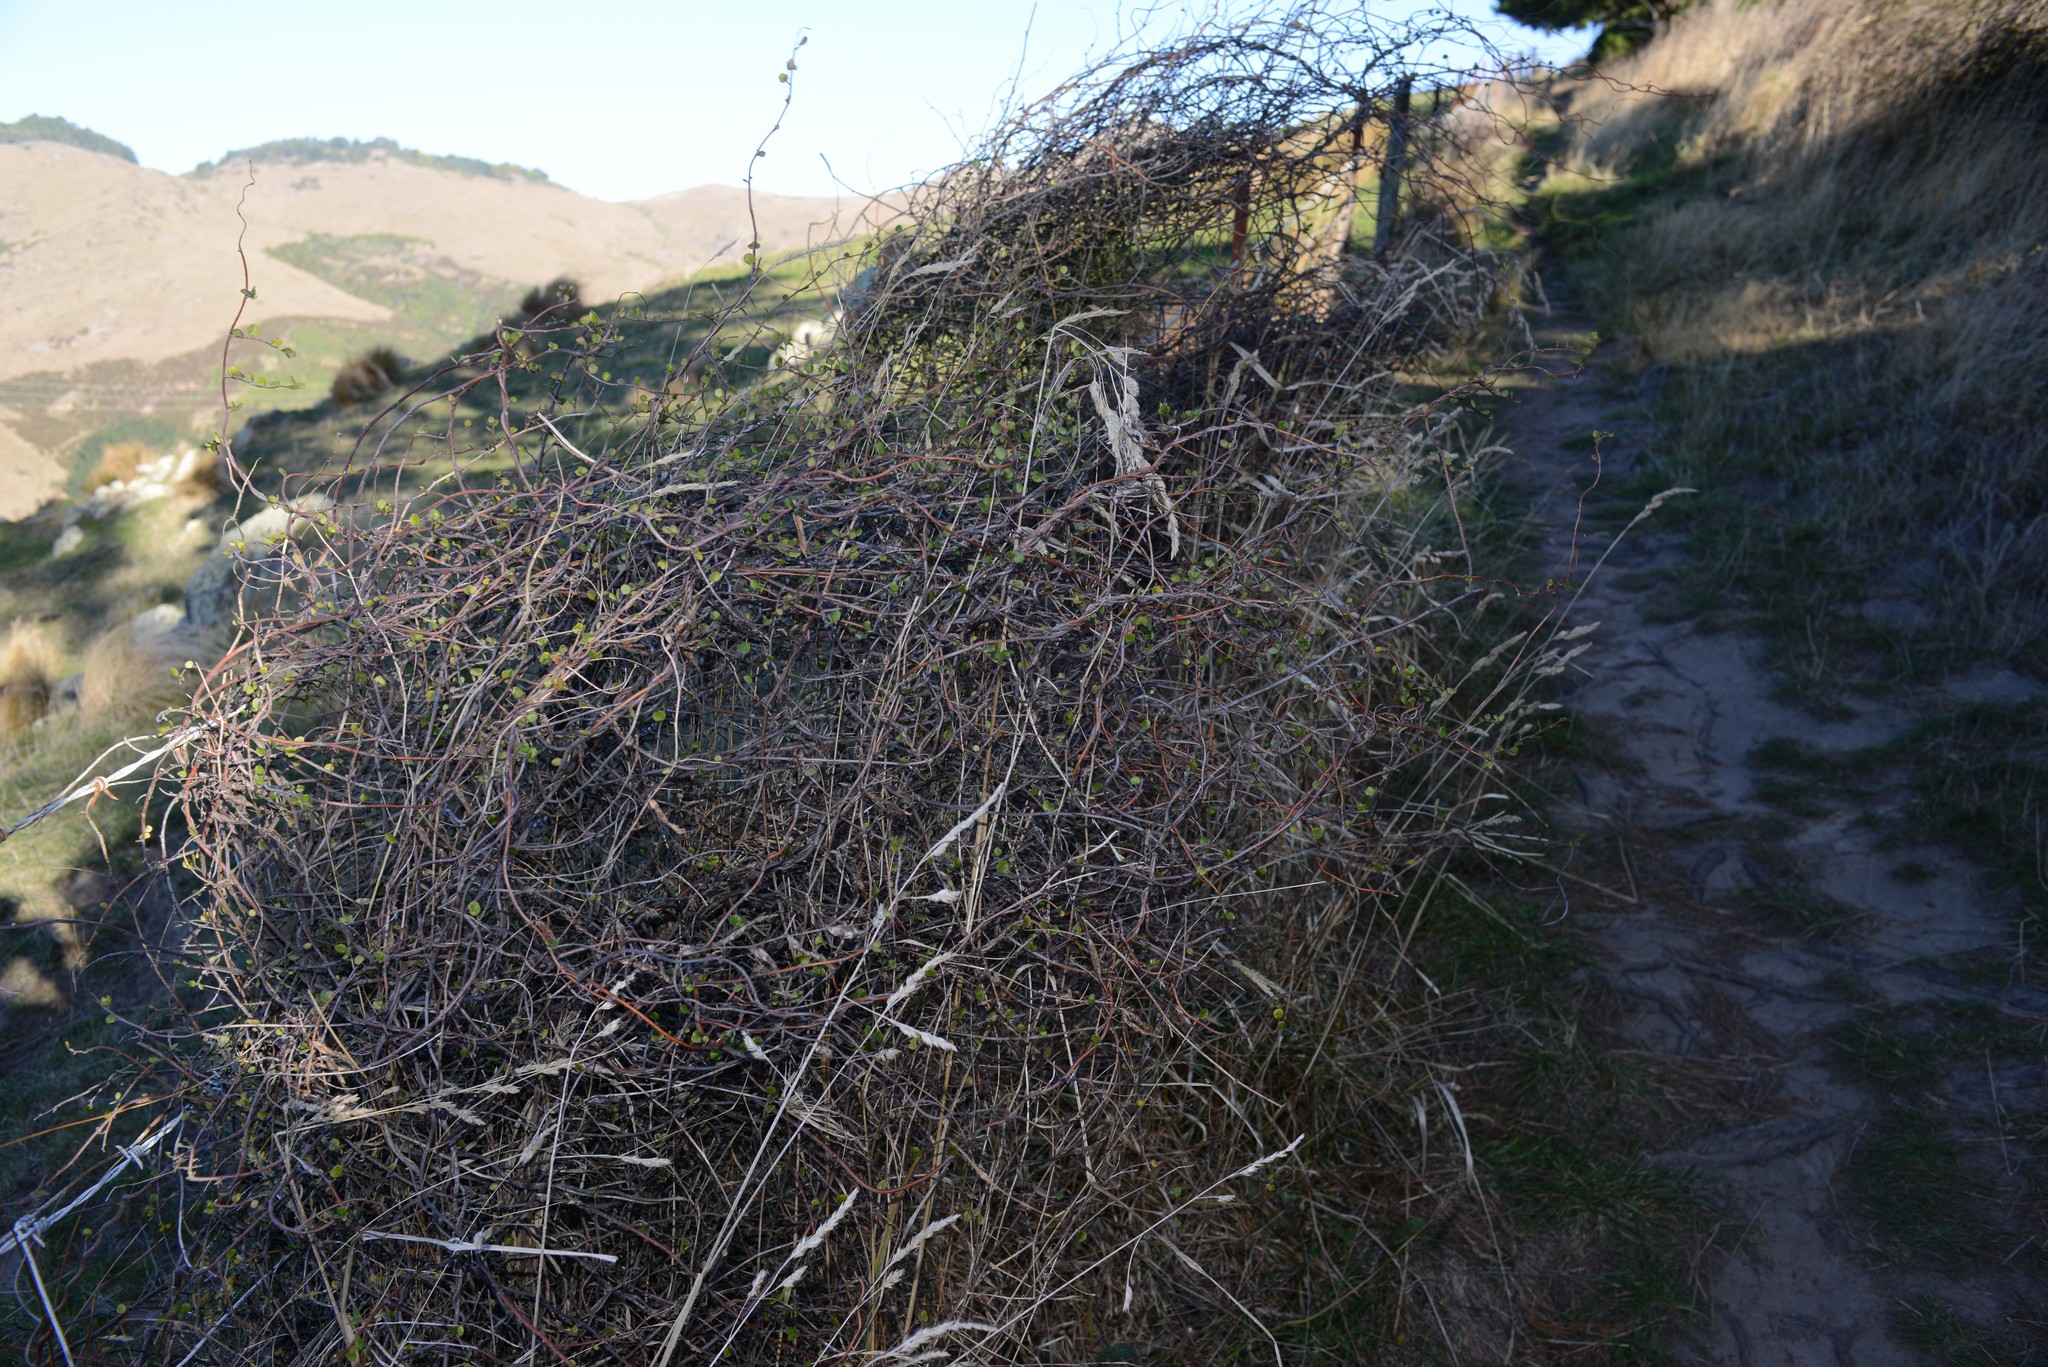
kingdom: Plantae
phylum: Tracheophyta
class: Magnoliopsida
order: Caryophyllales
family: Polygonaceae
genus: Muehlenbeckia
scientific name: Muehlenbeckia complexa
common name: Wireplant
